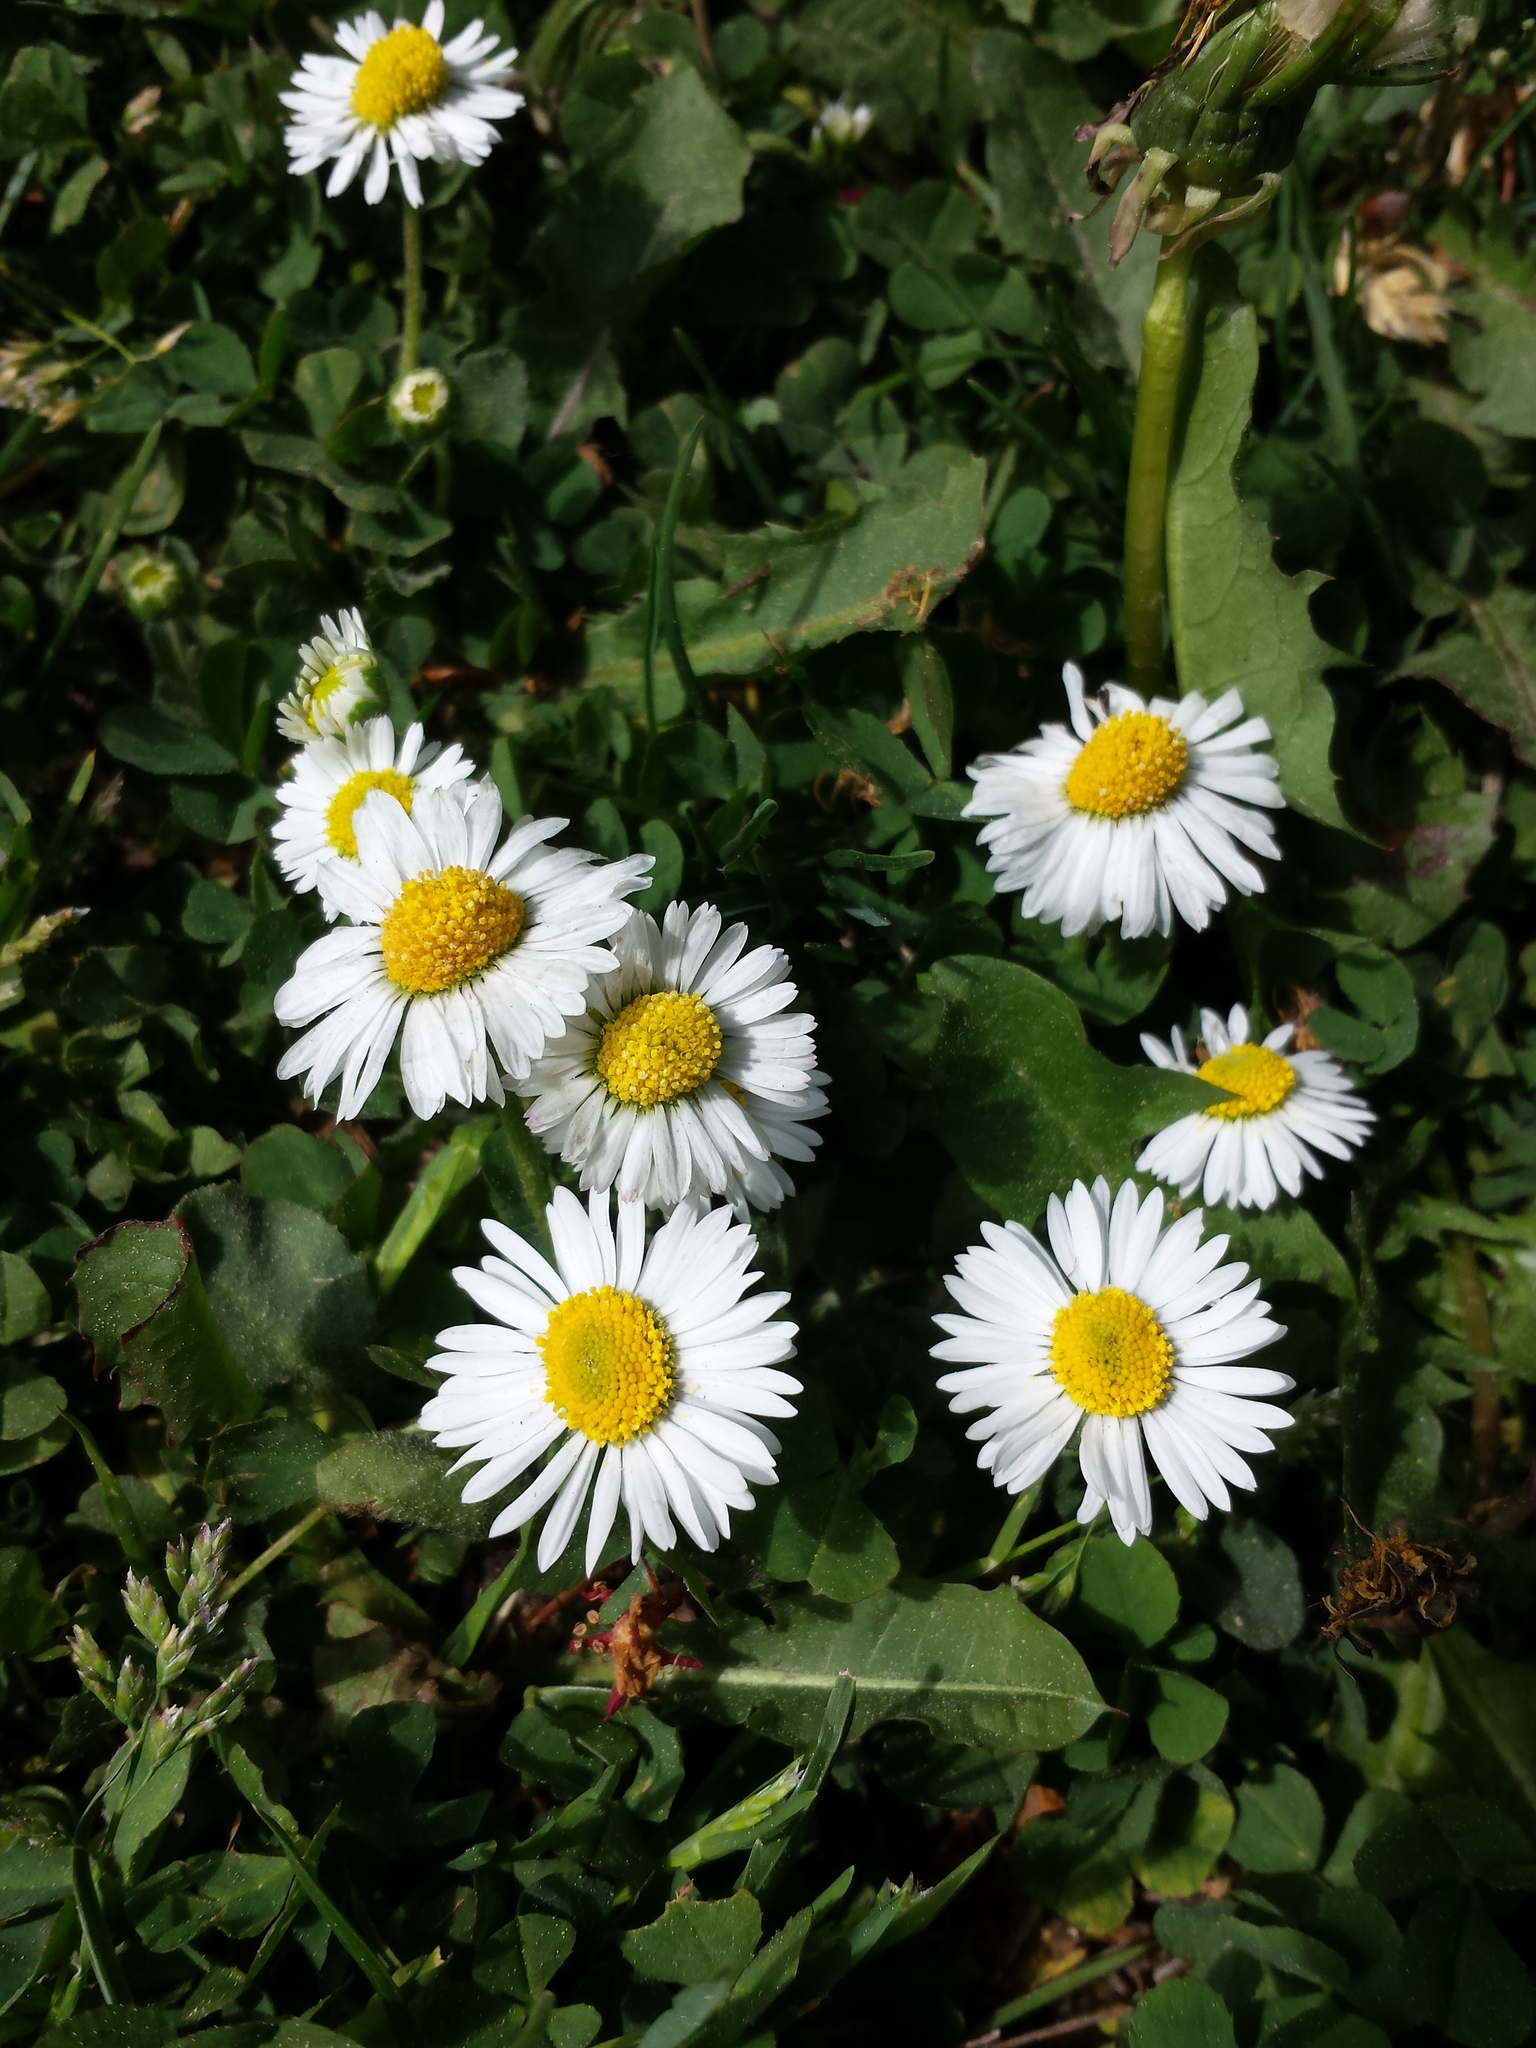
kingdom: Plantae
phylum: Tracheophyta
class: Magnoliopsida
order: Asterales
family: Asteraceae
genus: Bellis
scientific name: Bellis perennis
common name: Lawndaisy
